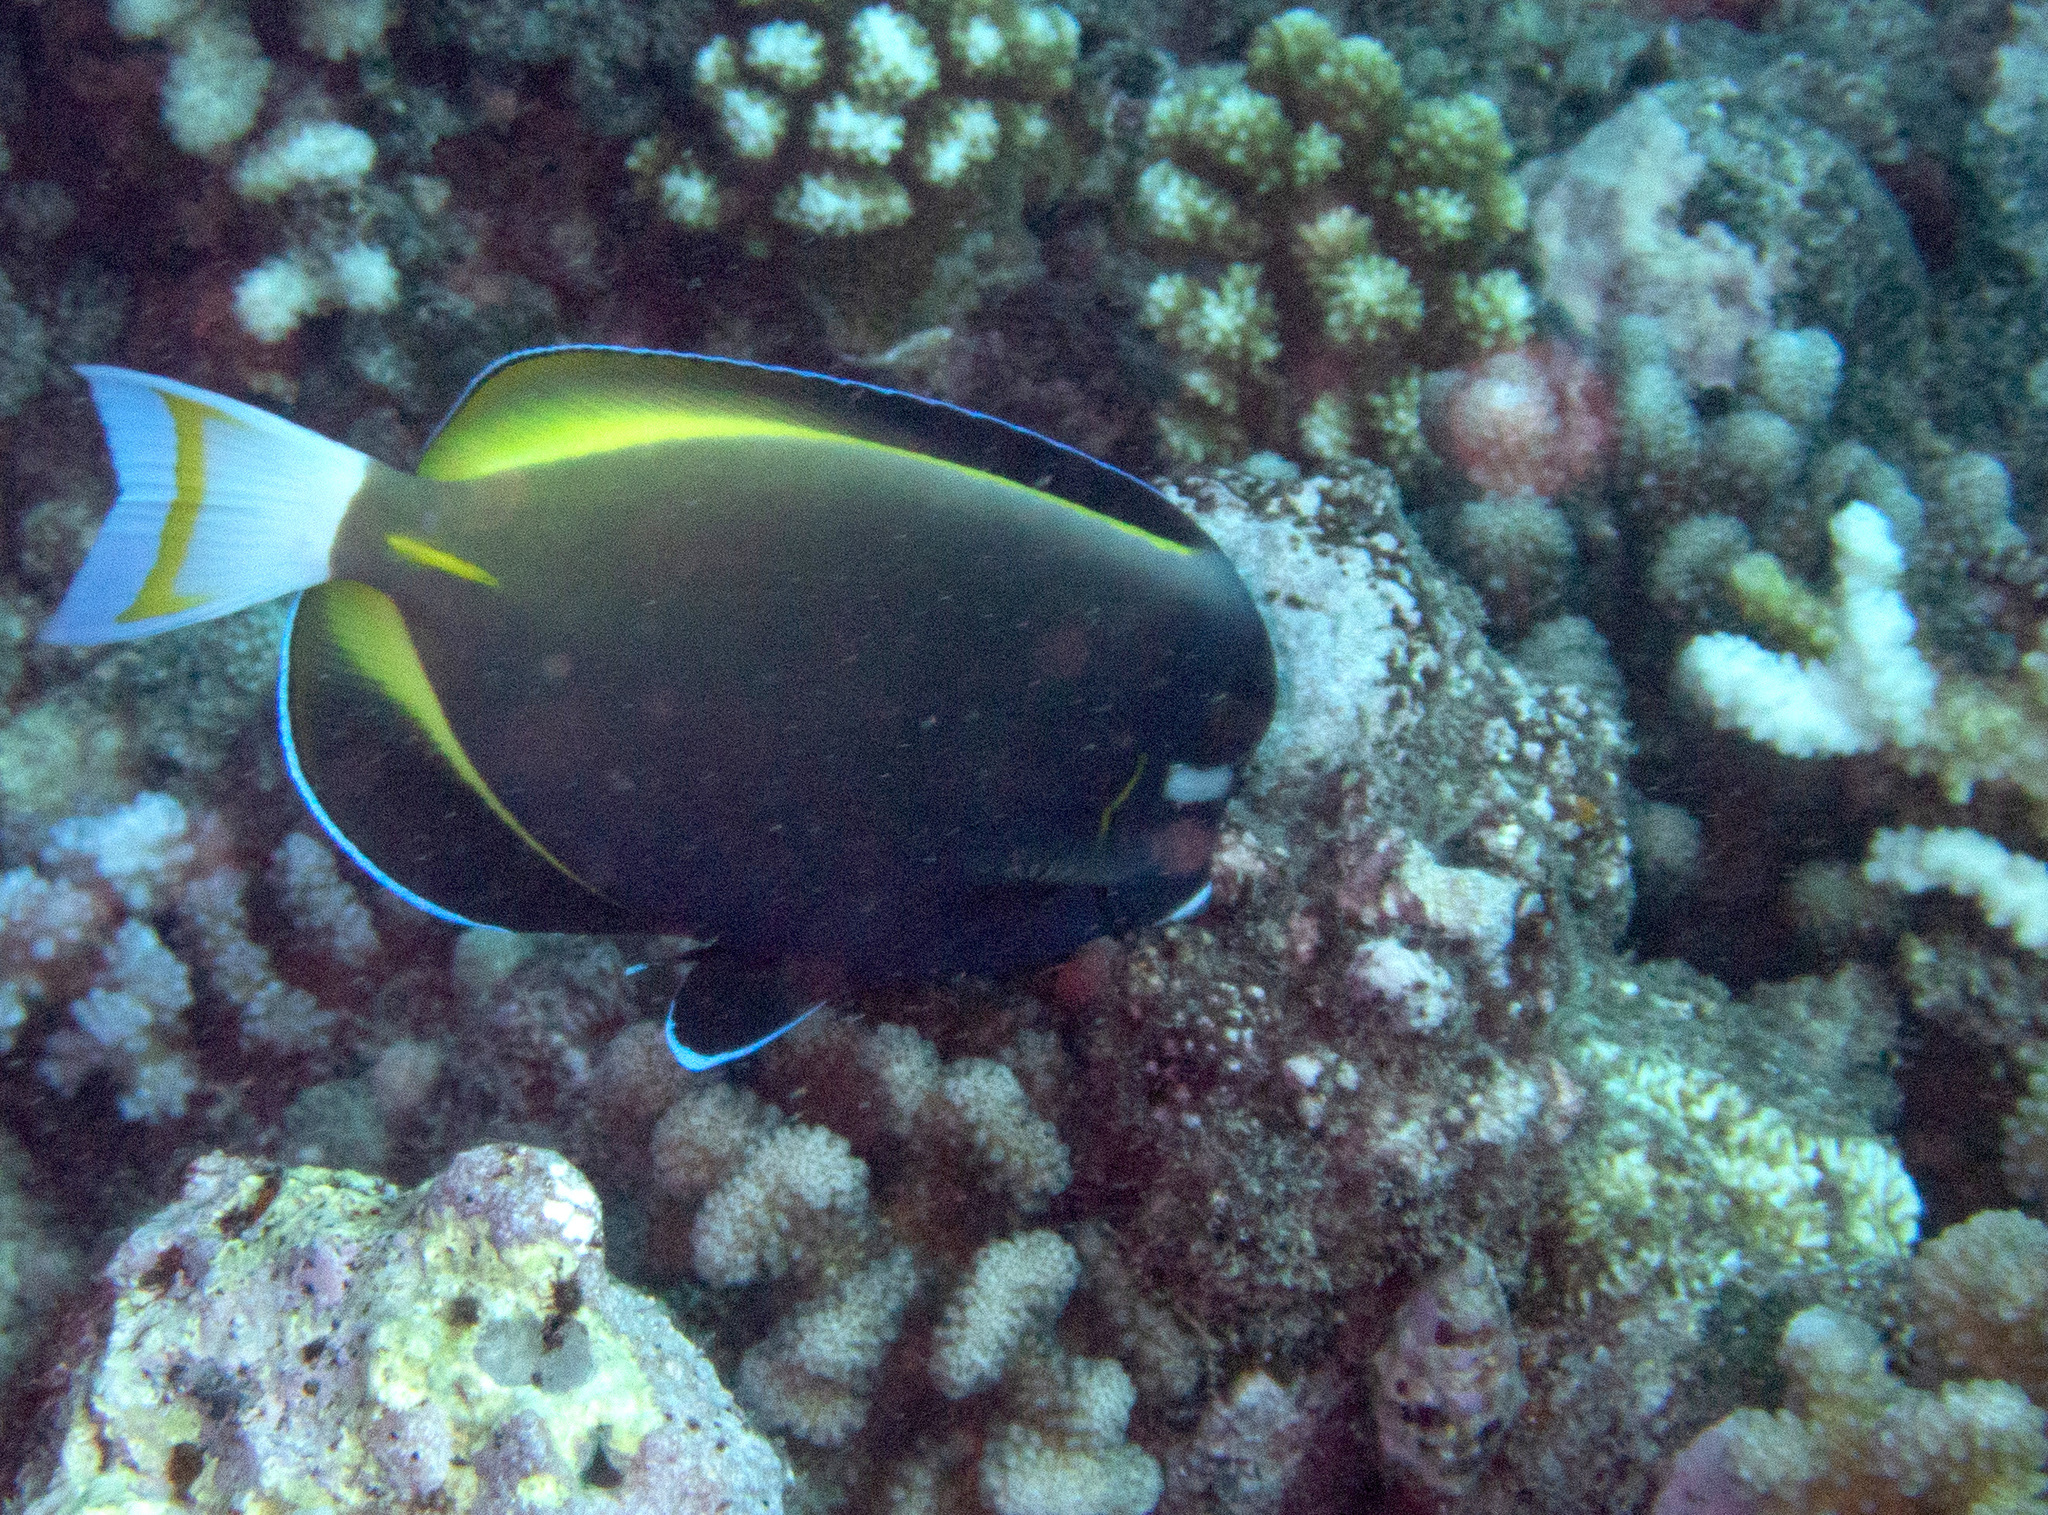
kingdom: Animalia
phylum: Chordata
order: Perciformes
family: Acanthuridae
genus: Acanthurus
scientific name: Acanthurus nigricans
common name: Whitecheek surgeonfish
